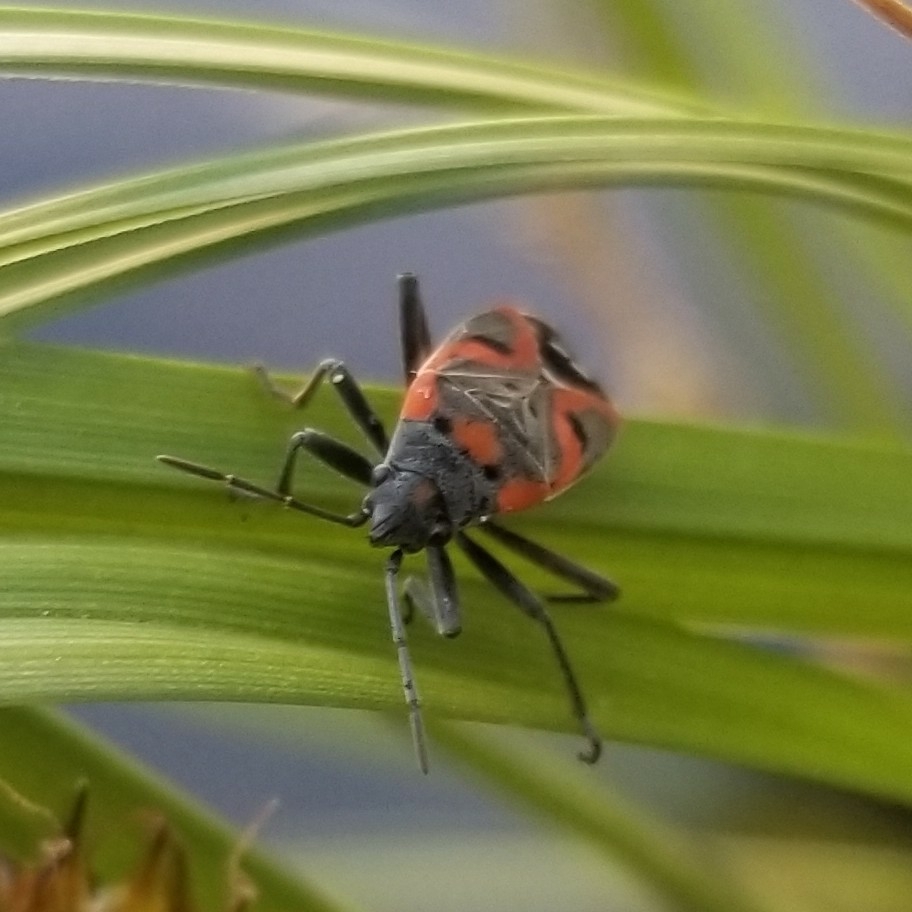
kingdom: Animalia
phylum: Arthropoda
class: Insecta
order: Hemiptera
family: Lygaeidae
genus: Lygaeus
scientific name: Lygaeus kalmii
